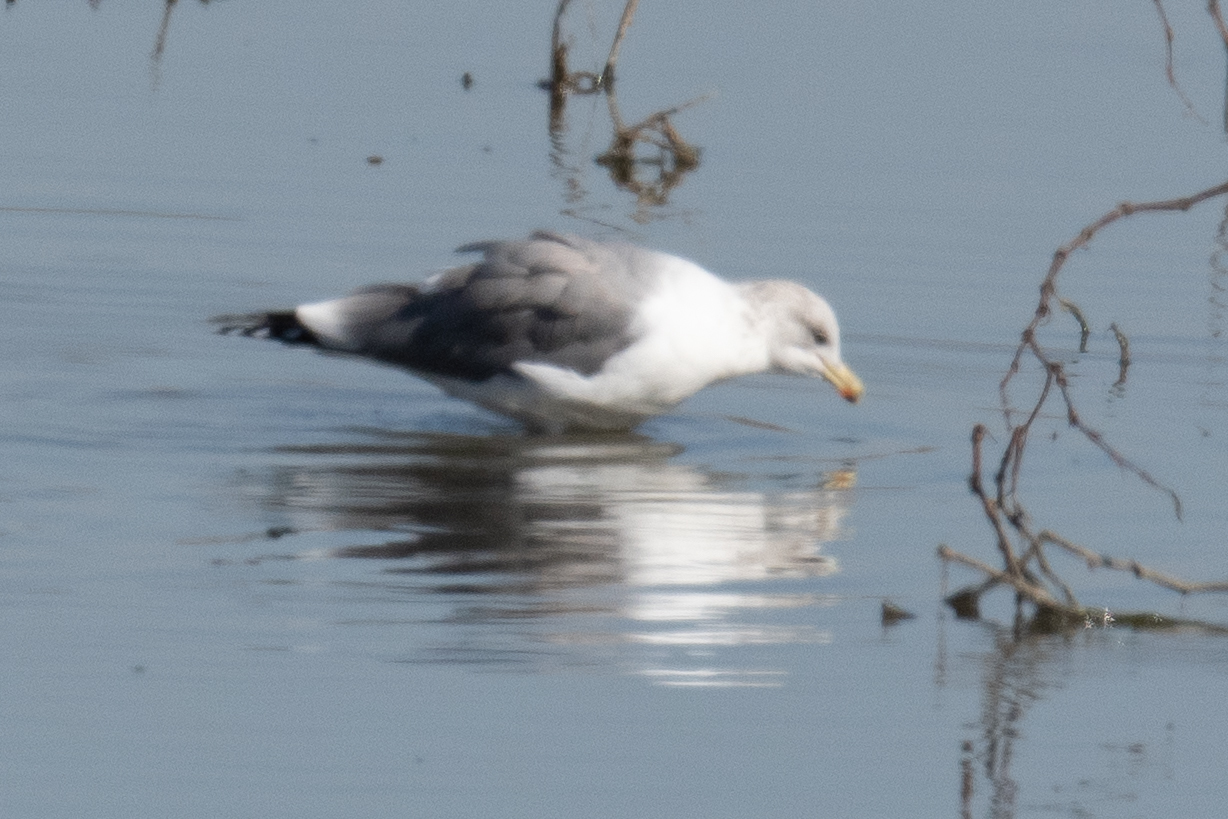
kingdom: Animalia
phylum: Chordata
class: Aves
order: Charadriiformes
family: Laridae
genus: Larus
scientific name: Larus californicus
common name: California gull
